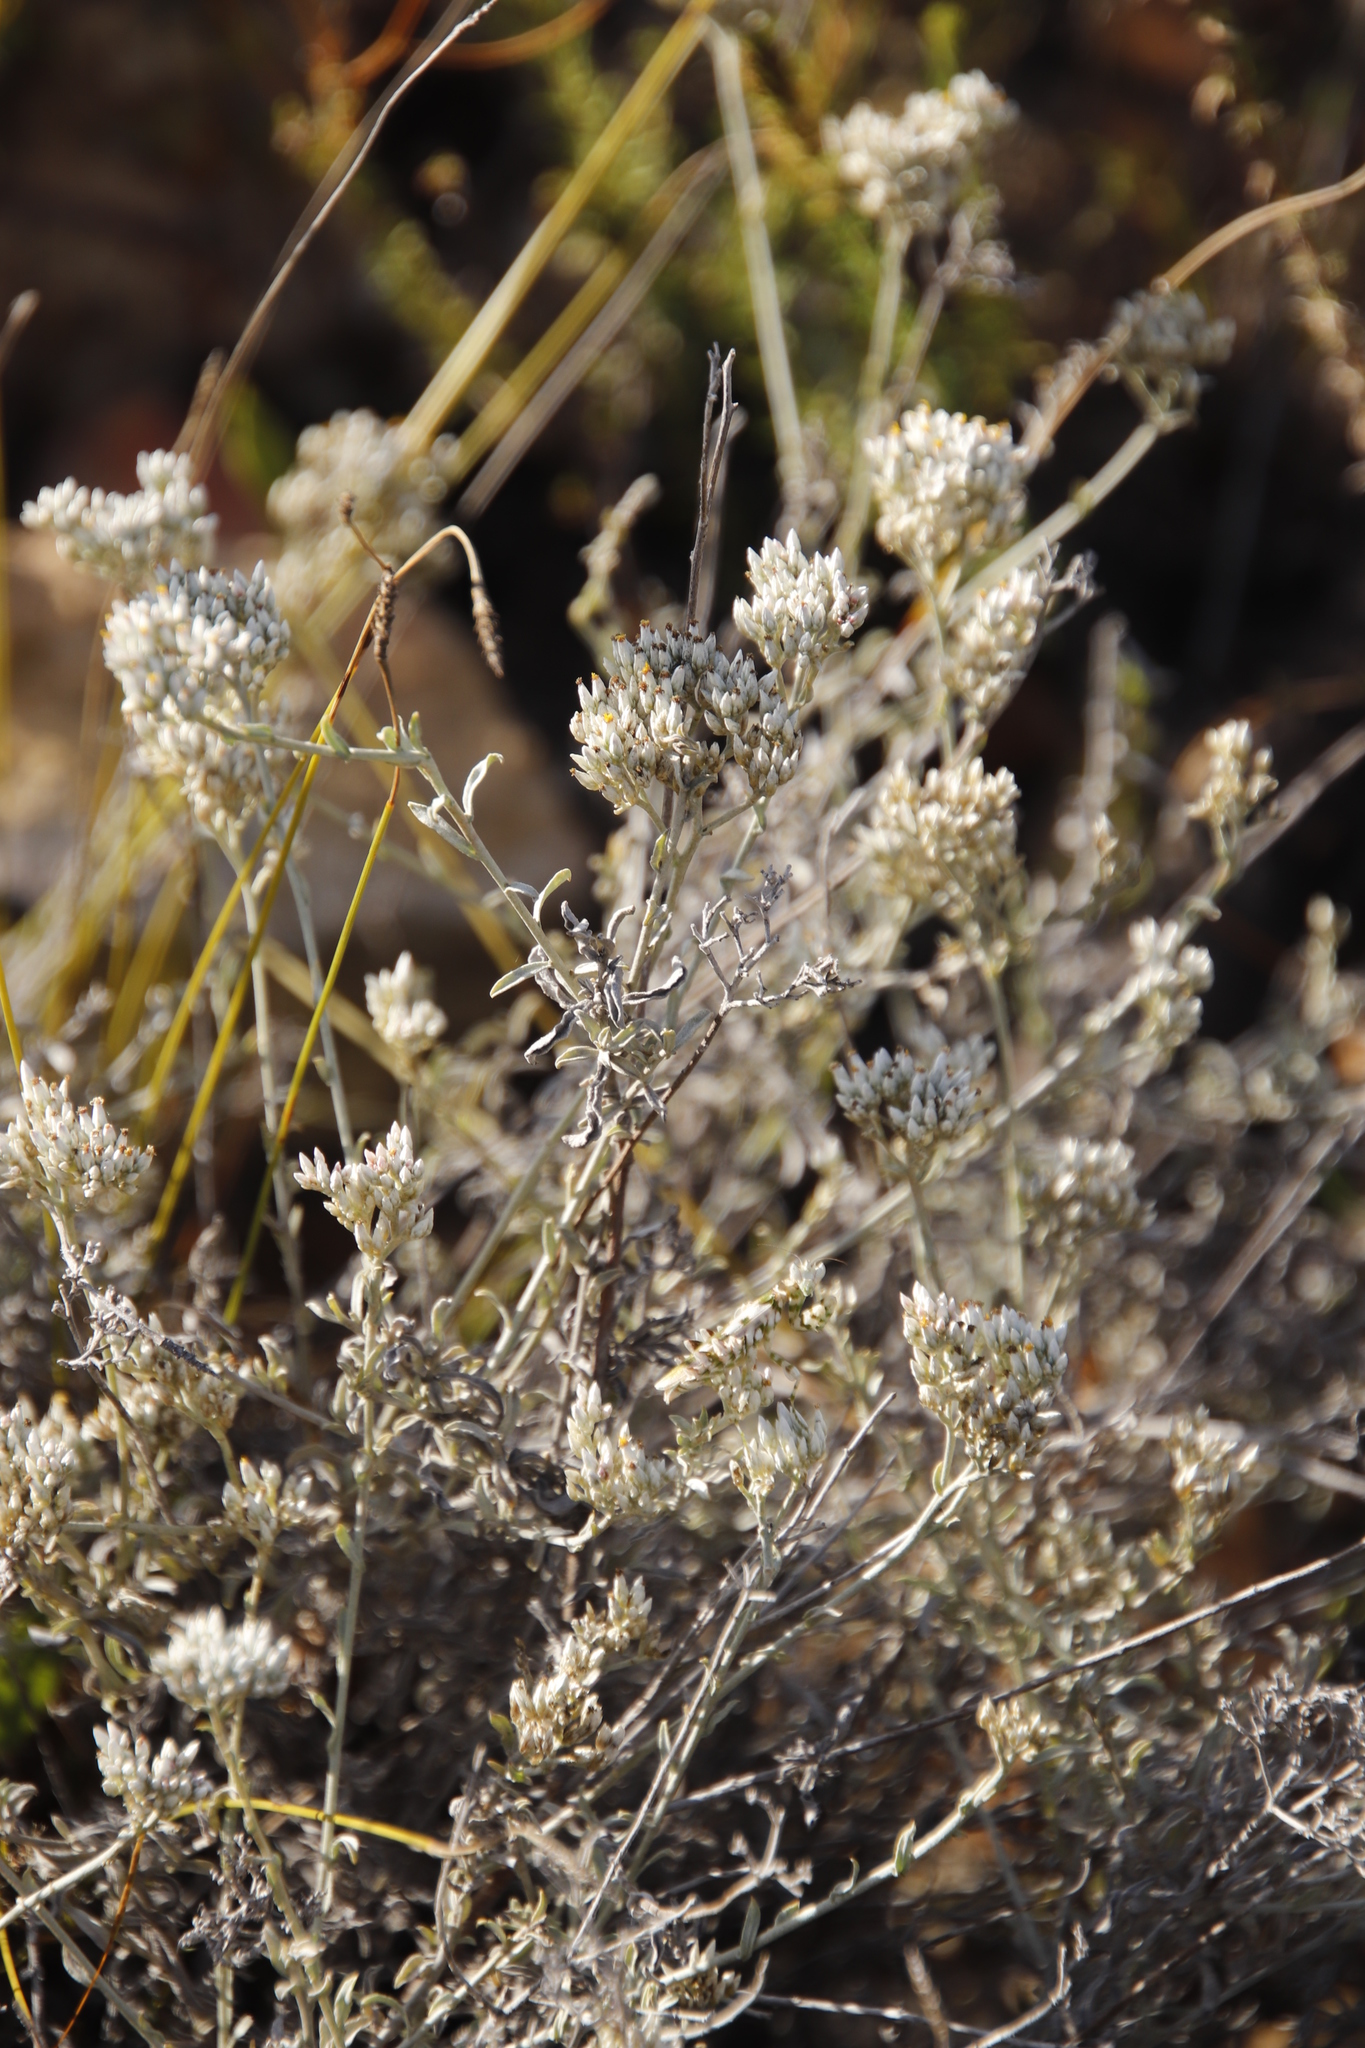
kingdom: Plantae
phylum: Tracheophyta
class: Magnoliopsida
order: Asterales
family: Asteraceae
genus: Helichrysum
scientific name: Helichrysum zeyheri
